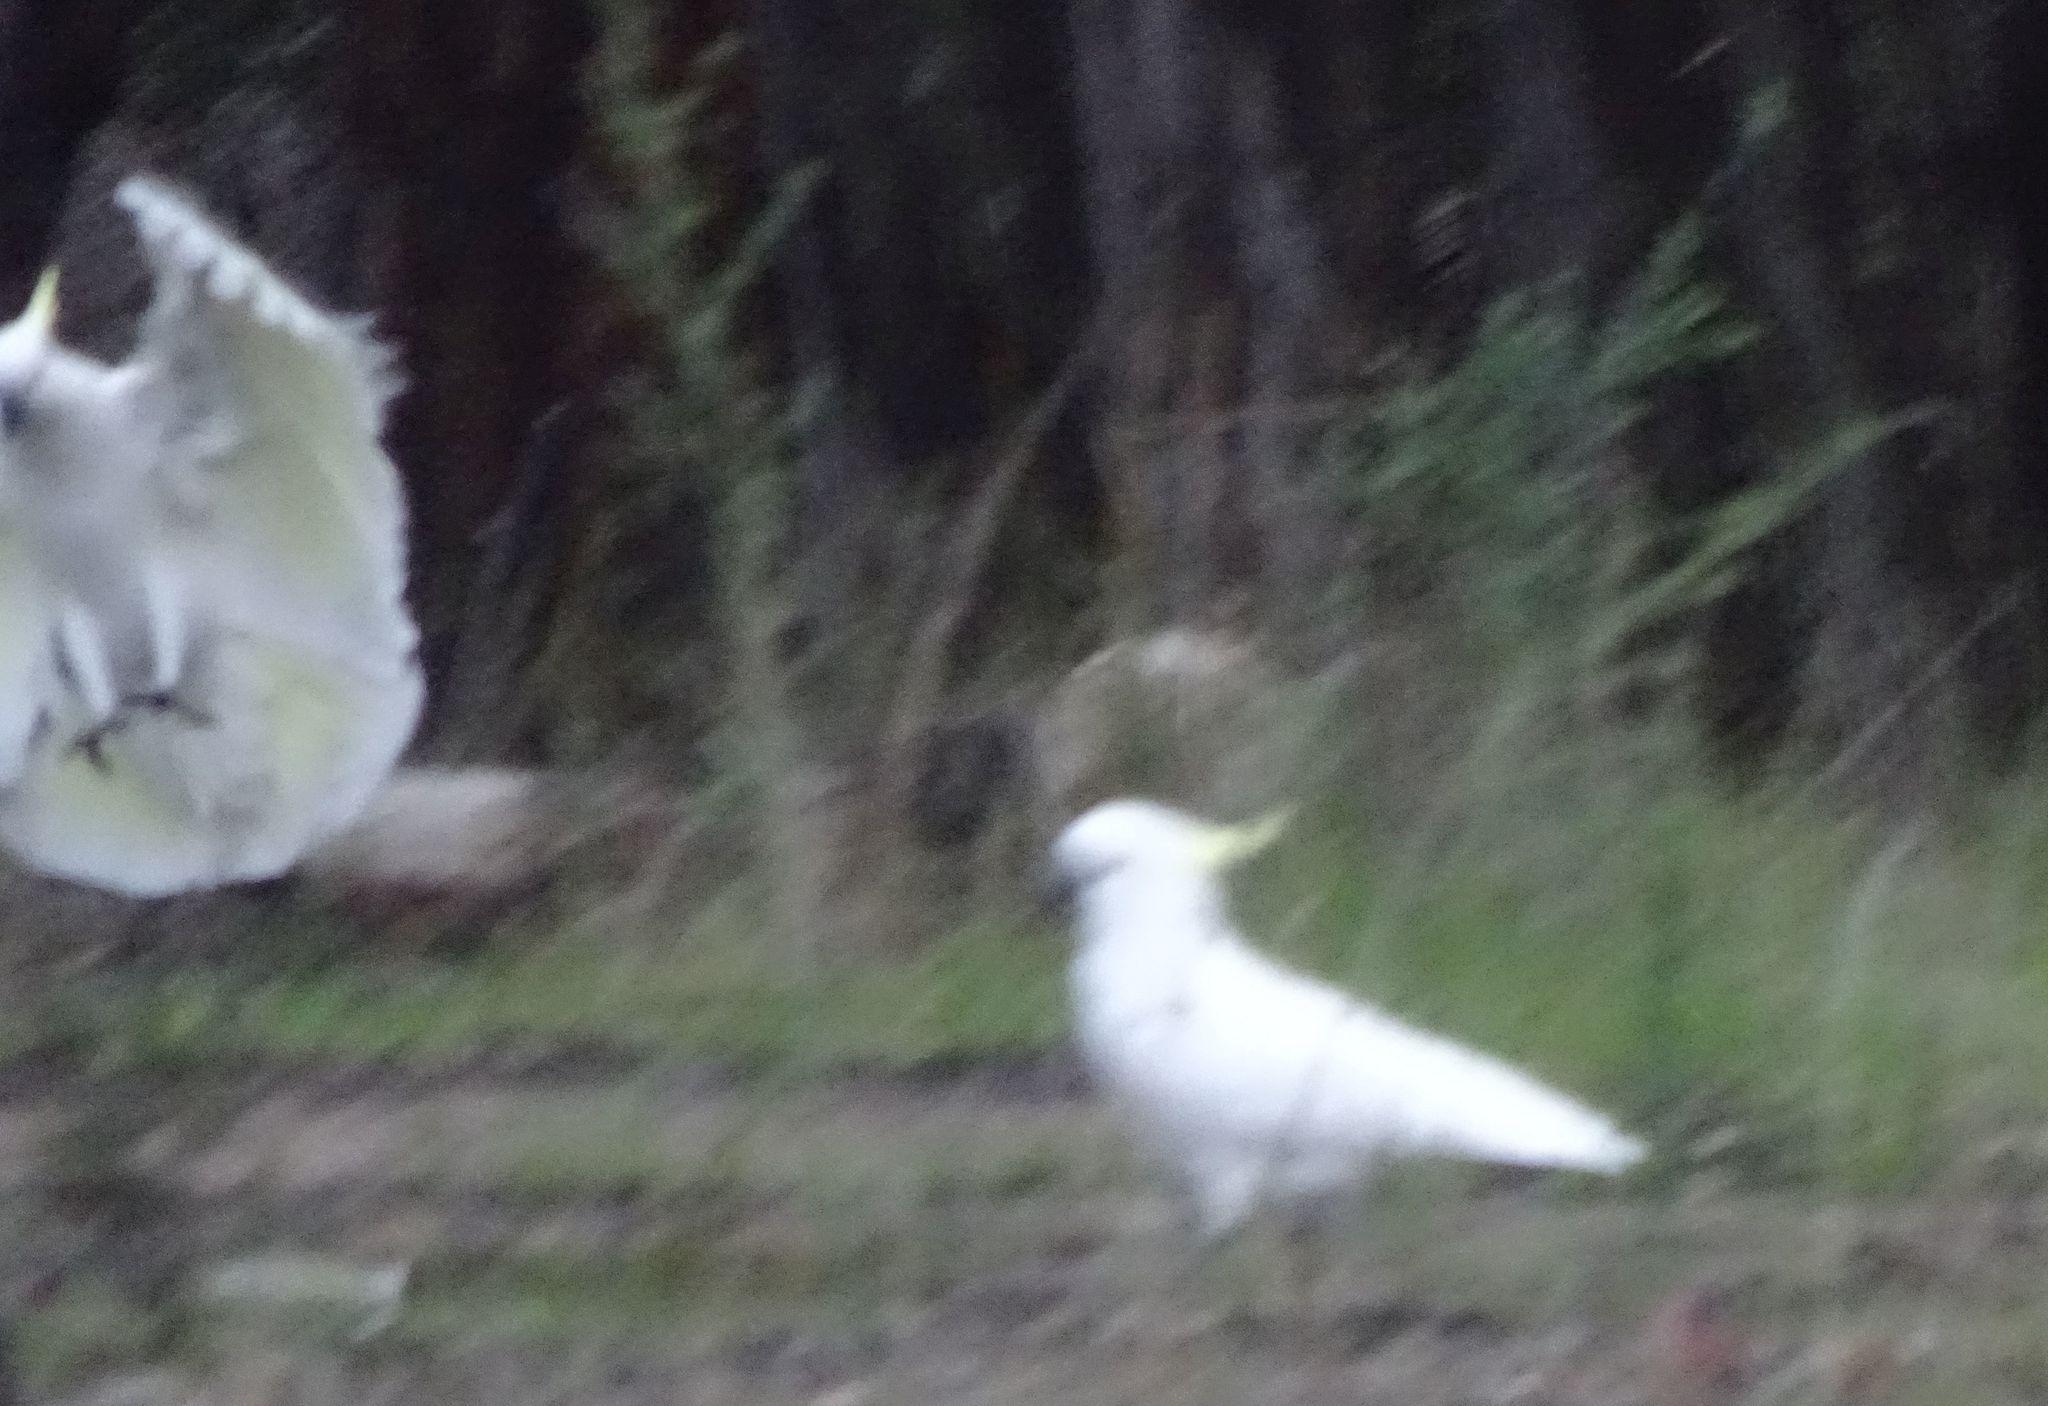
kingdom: Animalia
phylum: Chordata
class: Aves
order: Psittaciformes
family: Psittacidae
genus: Cacatua
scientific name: Cacatua galerita
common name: Sulphur-crested cockatoo
